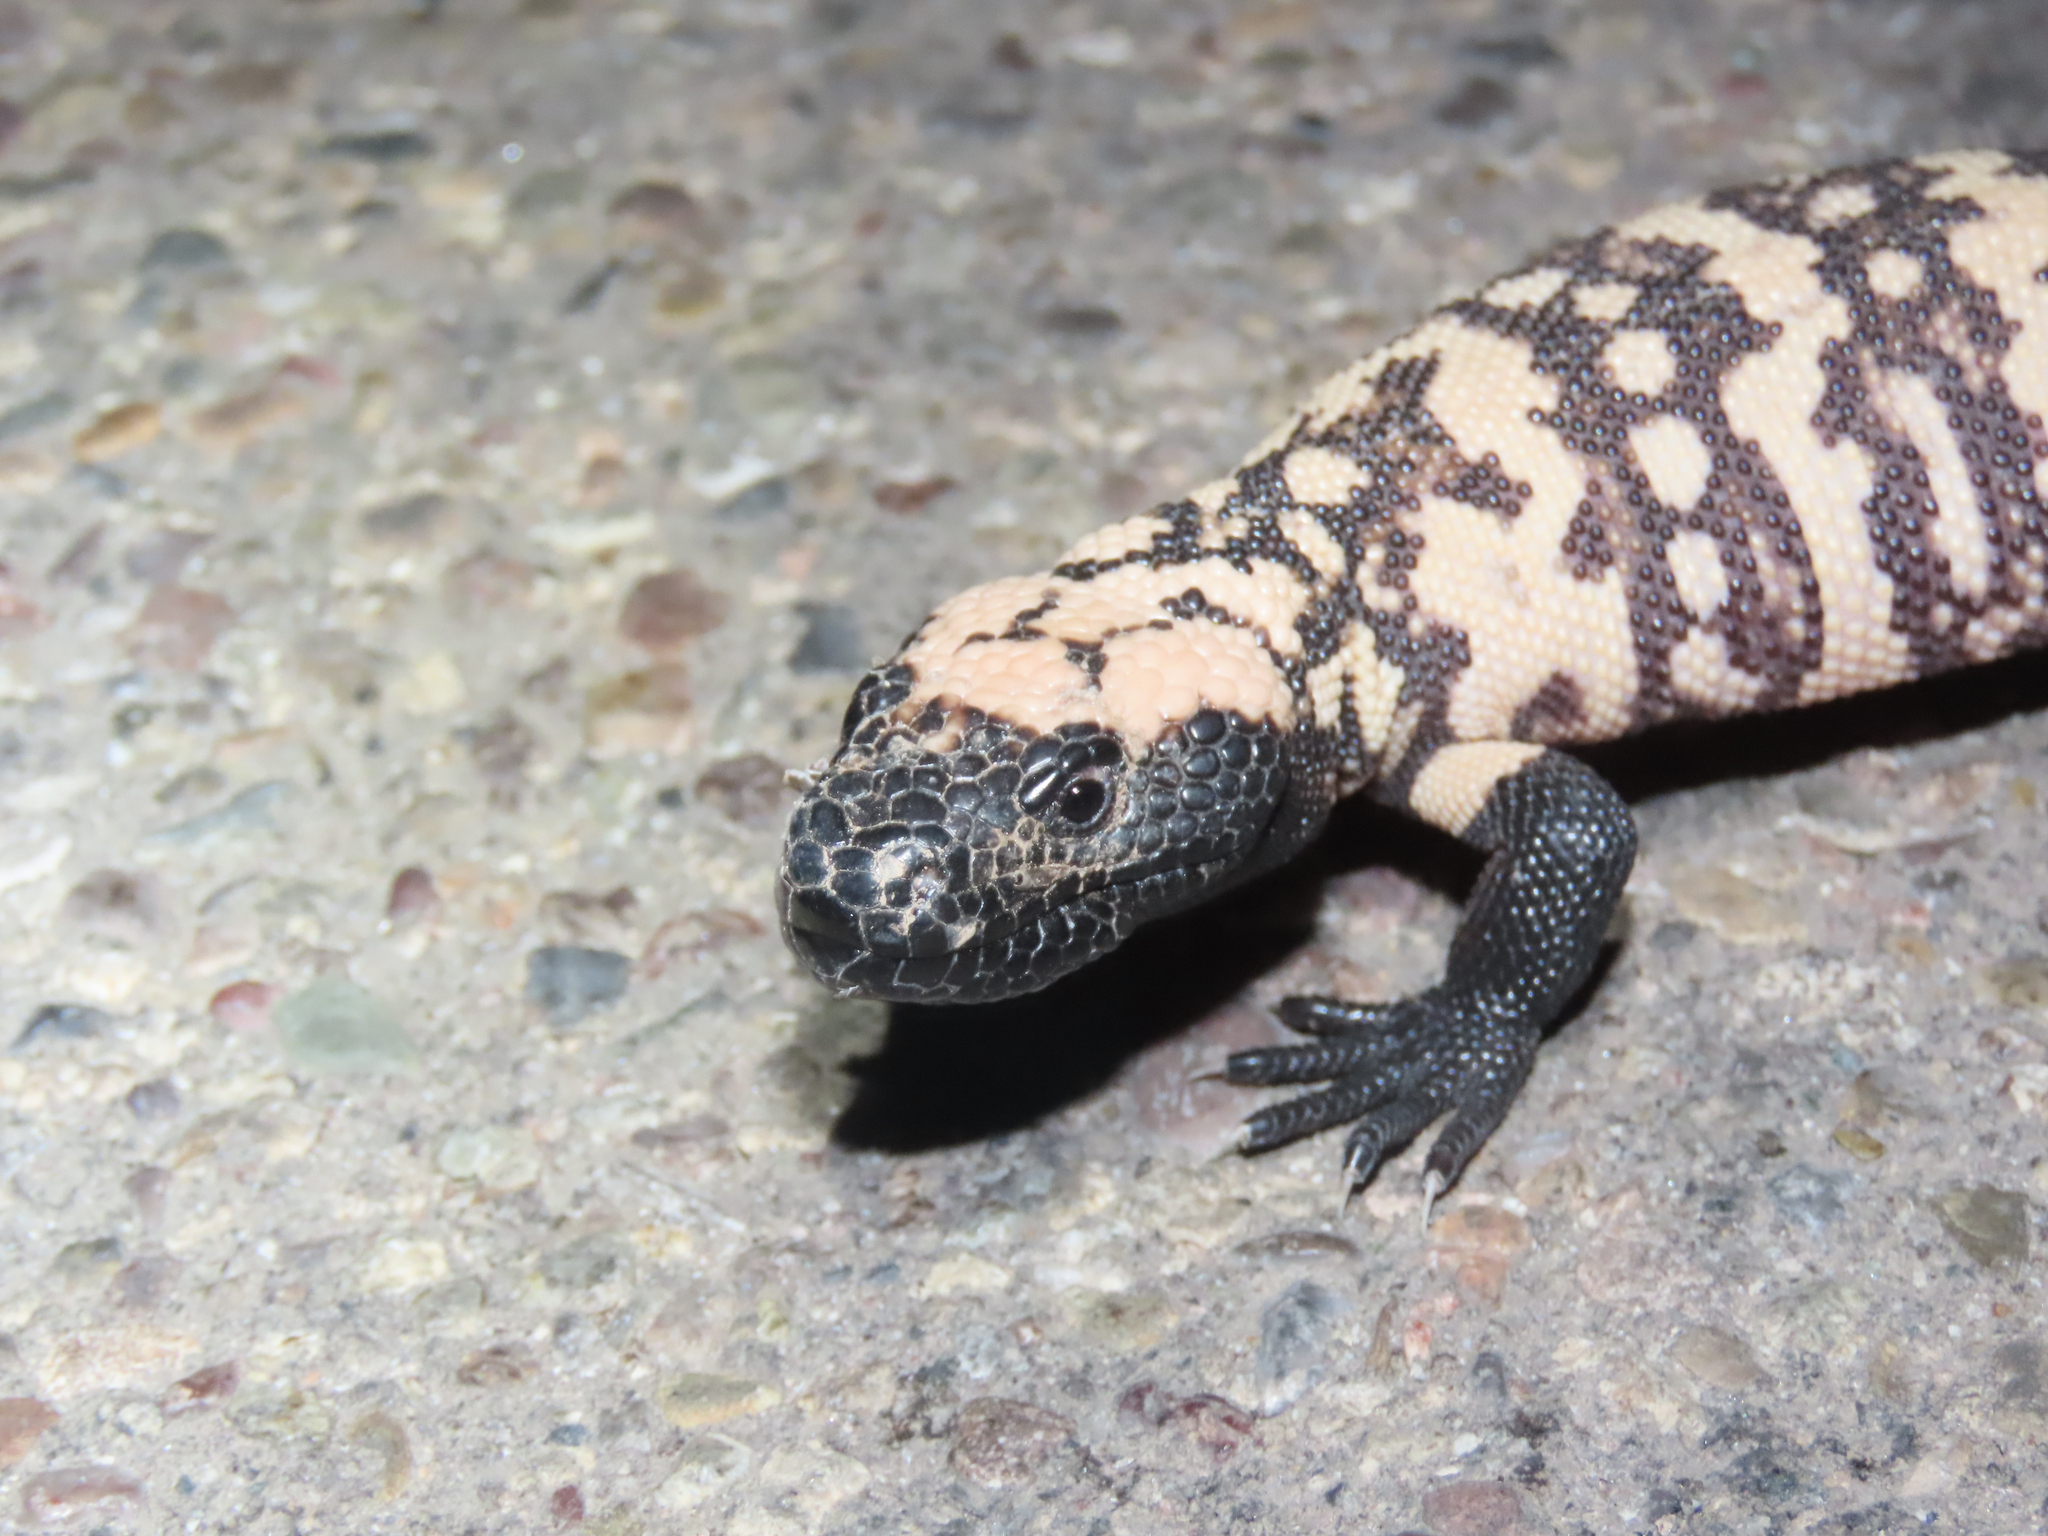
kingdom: Animalia
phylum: Chordata
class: Squamata
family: Helodermatidae
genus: Heloderma
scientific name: Heloderma suspectum
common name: Gila monster
